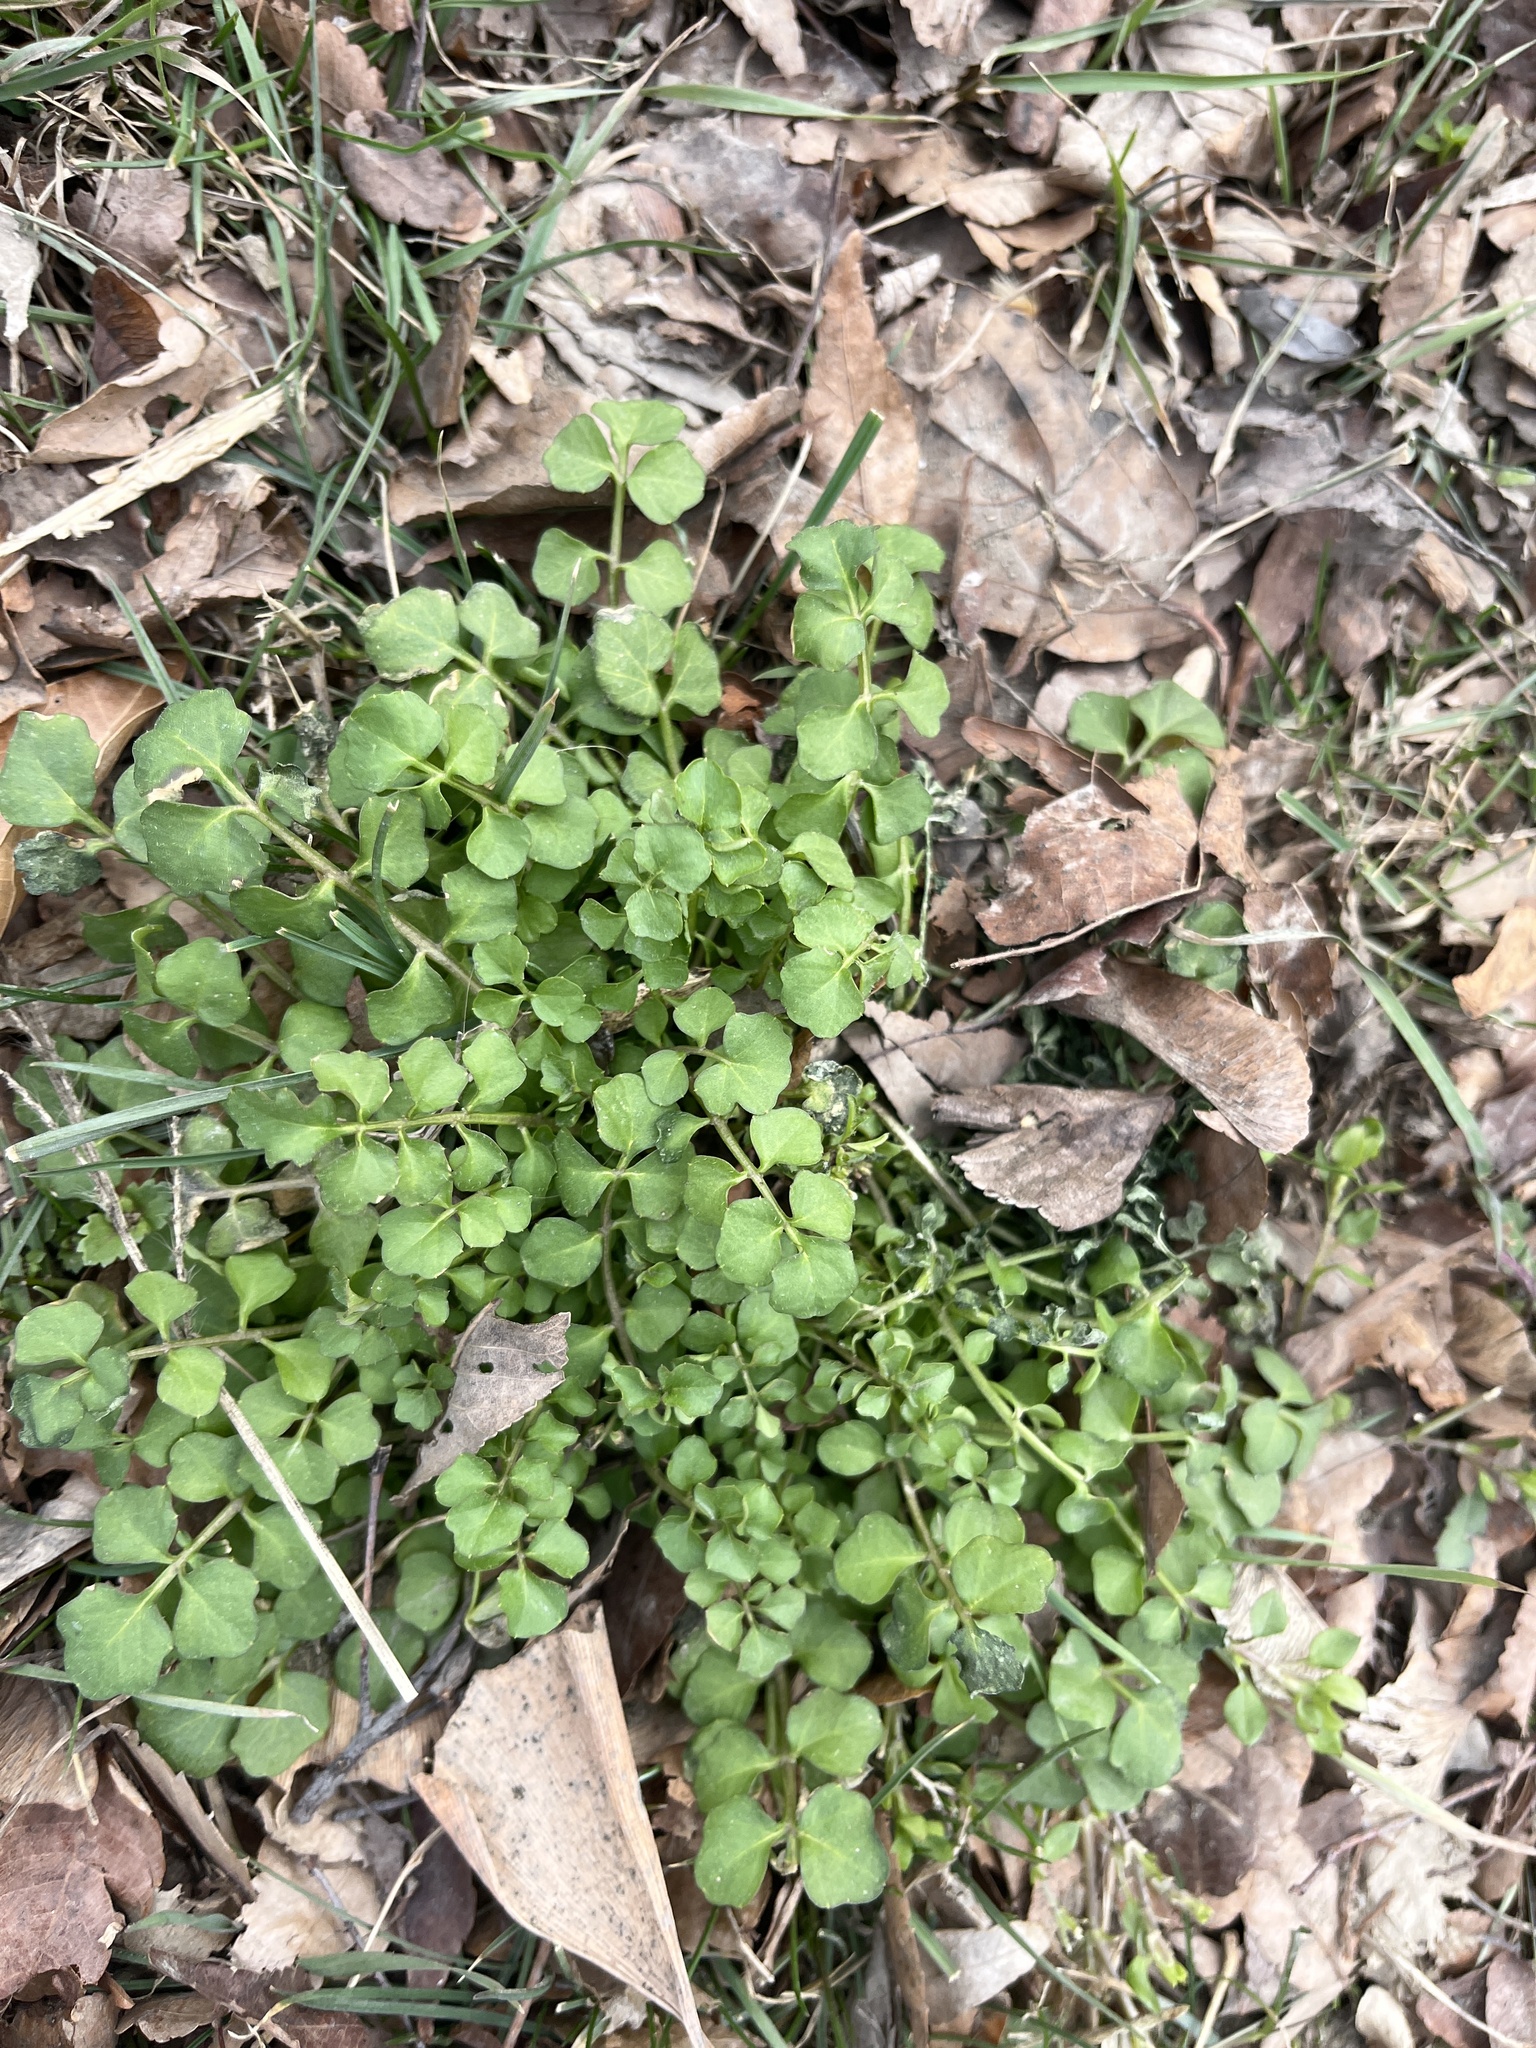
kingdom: Plantae
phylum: Tracheophyta
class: Magnoliopsida
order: Brassicales
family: Brassicaceae
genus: Cardamine
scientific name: Cardamine hirsuta
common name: Hairy bittercress
